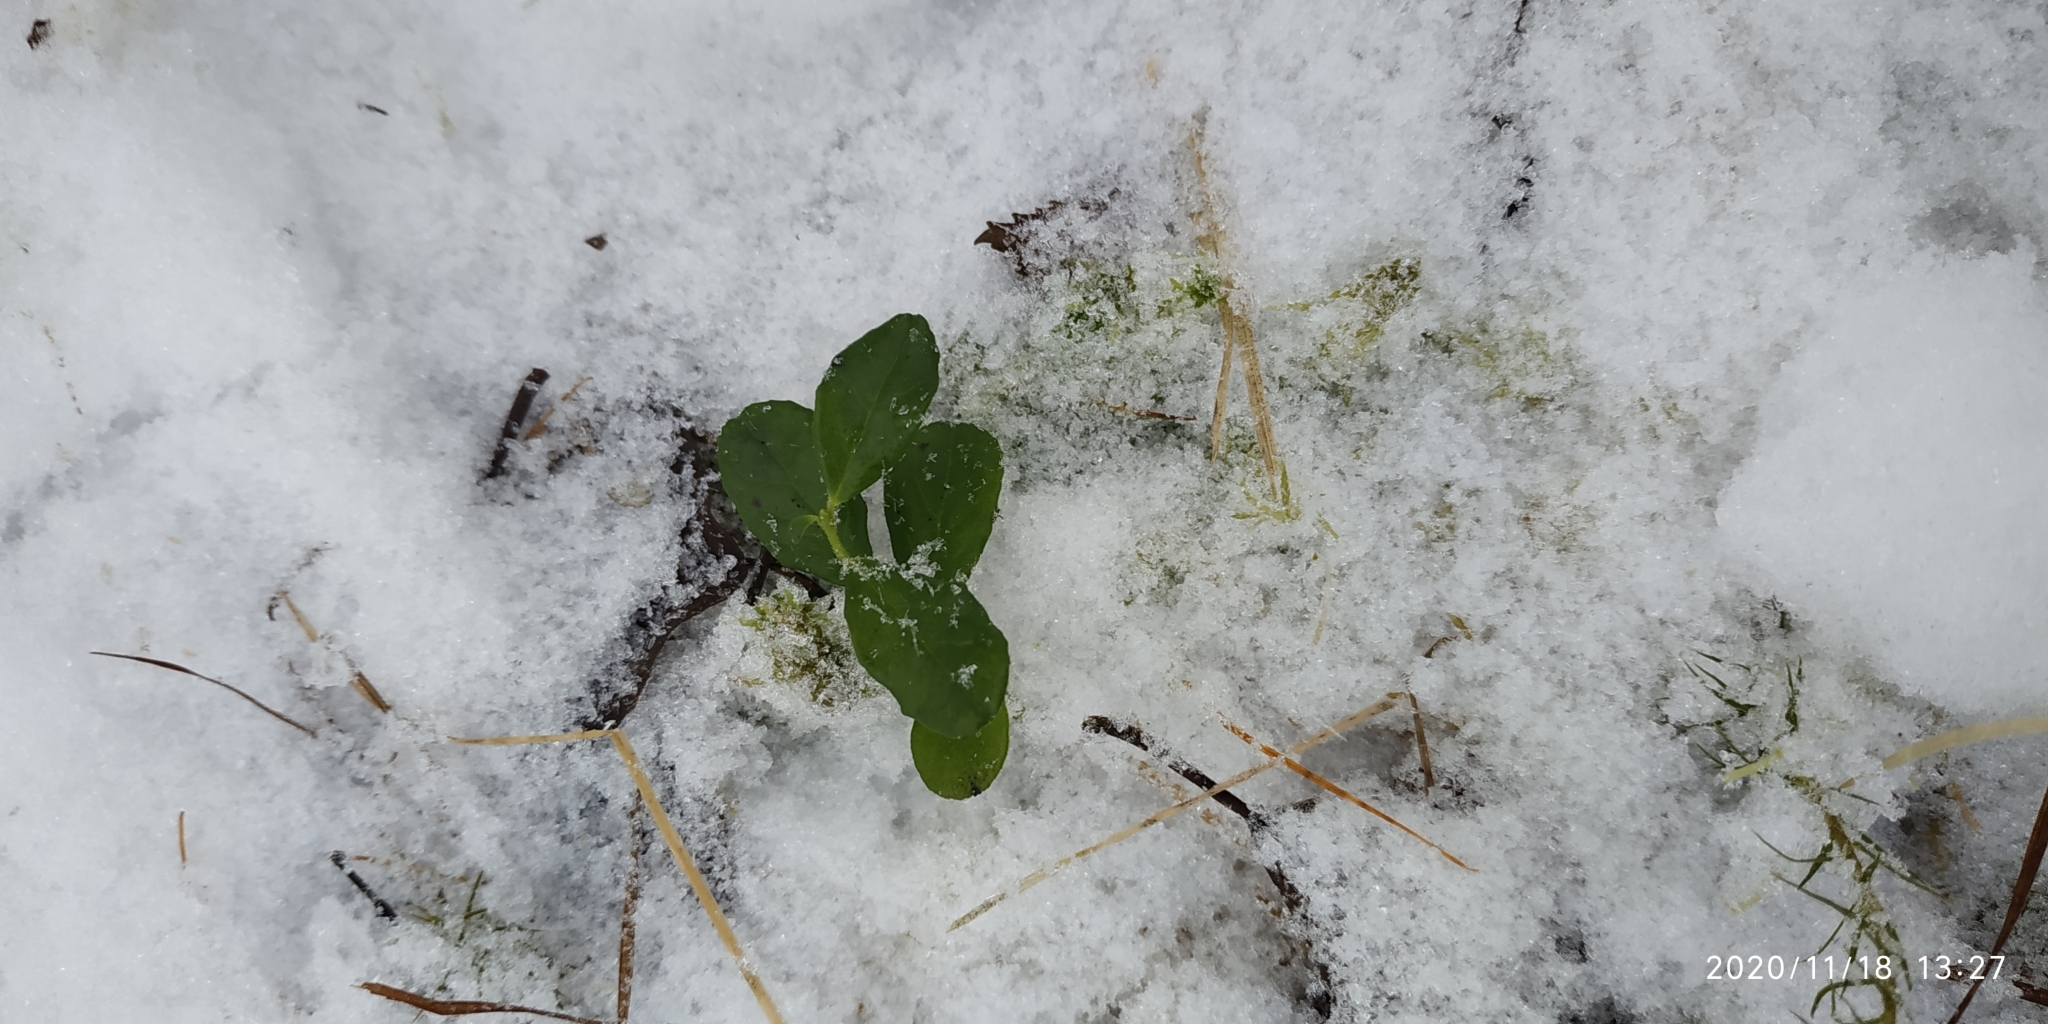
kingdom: Plantae
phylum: Tracheophyta
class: Magnoliopsida
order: Ericales
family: Ericaceae
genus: Vaccinium
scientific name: Vaccinium vitis-idaea
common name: Cowberry
